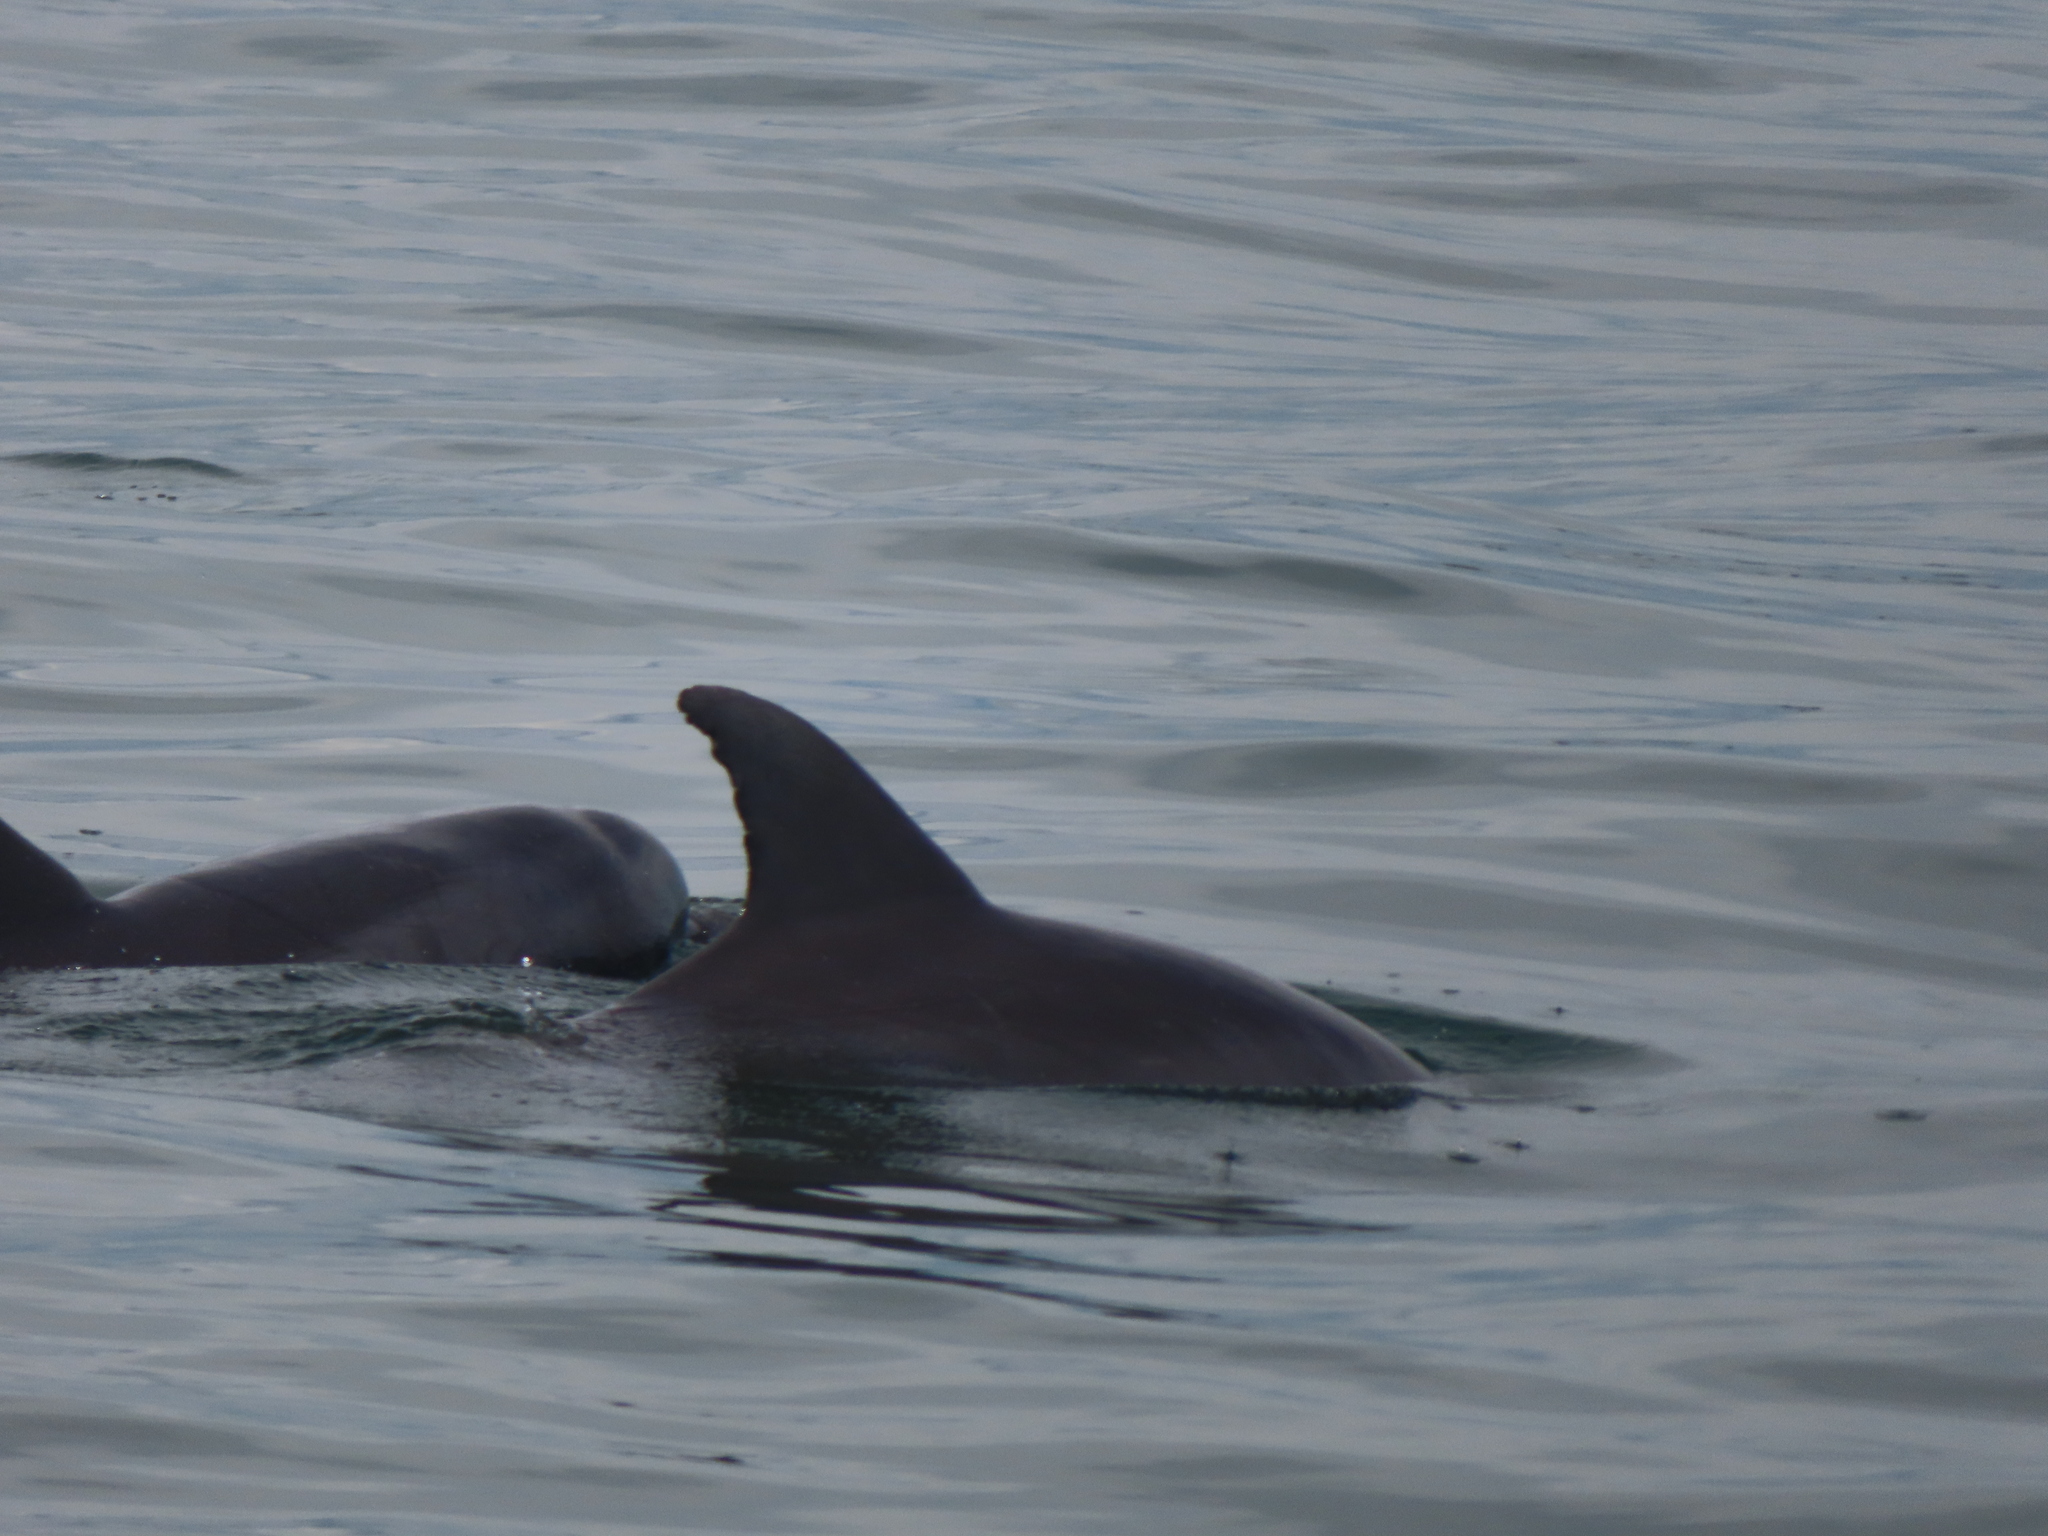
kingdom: Animalia
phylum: Chordata
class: Mammalia
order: Cetacea
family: Delphinidae
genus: Tursiops
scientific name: Tursiops truncatus
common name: Bottlenose dolphin
